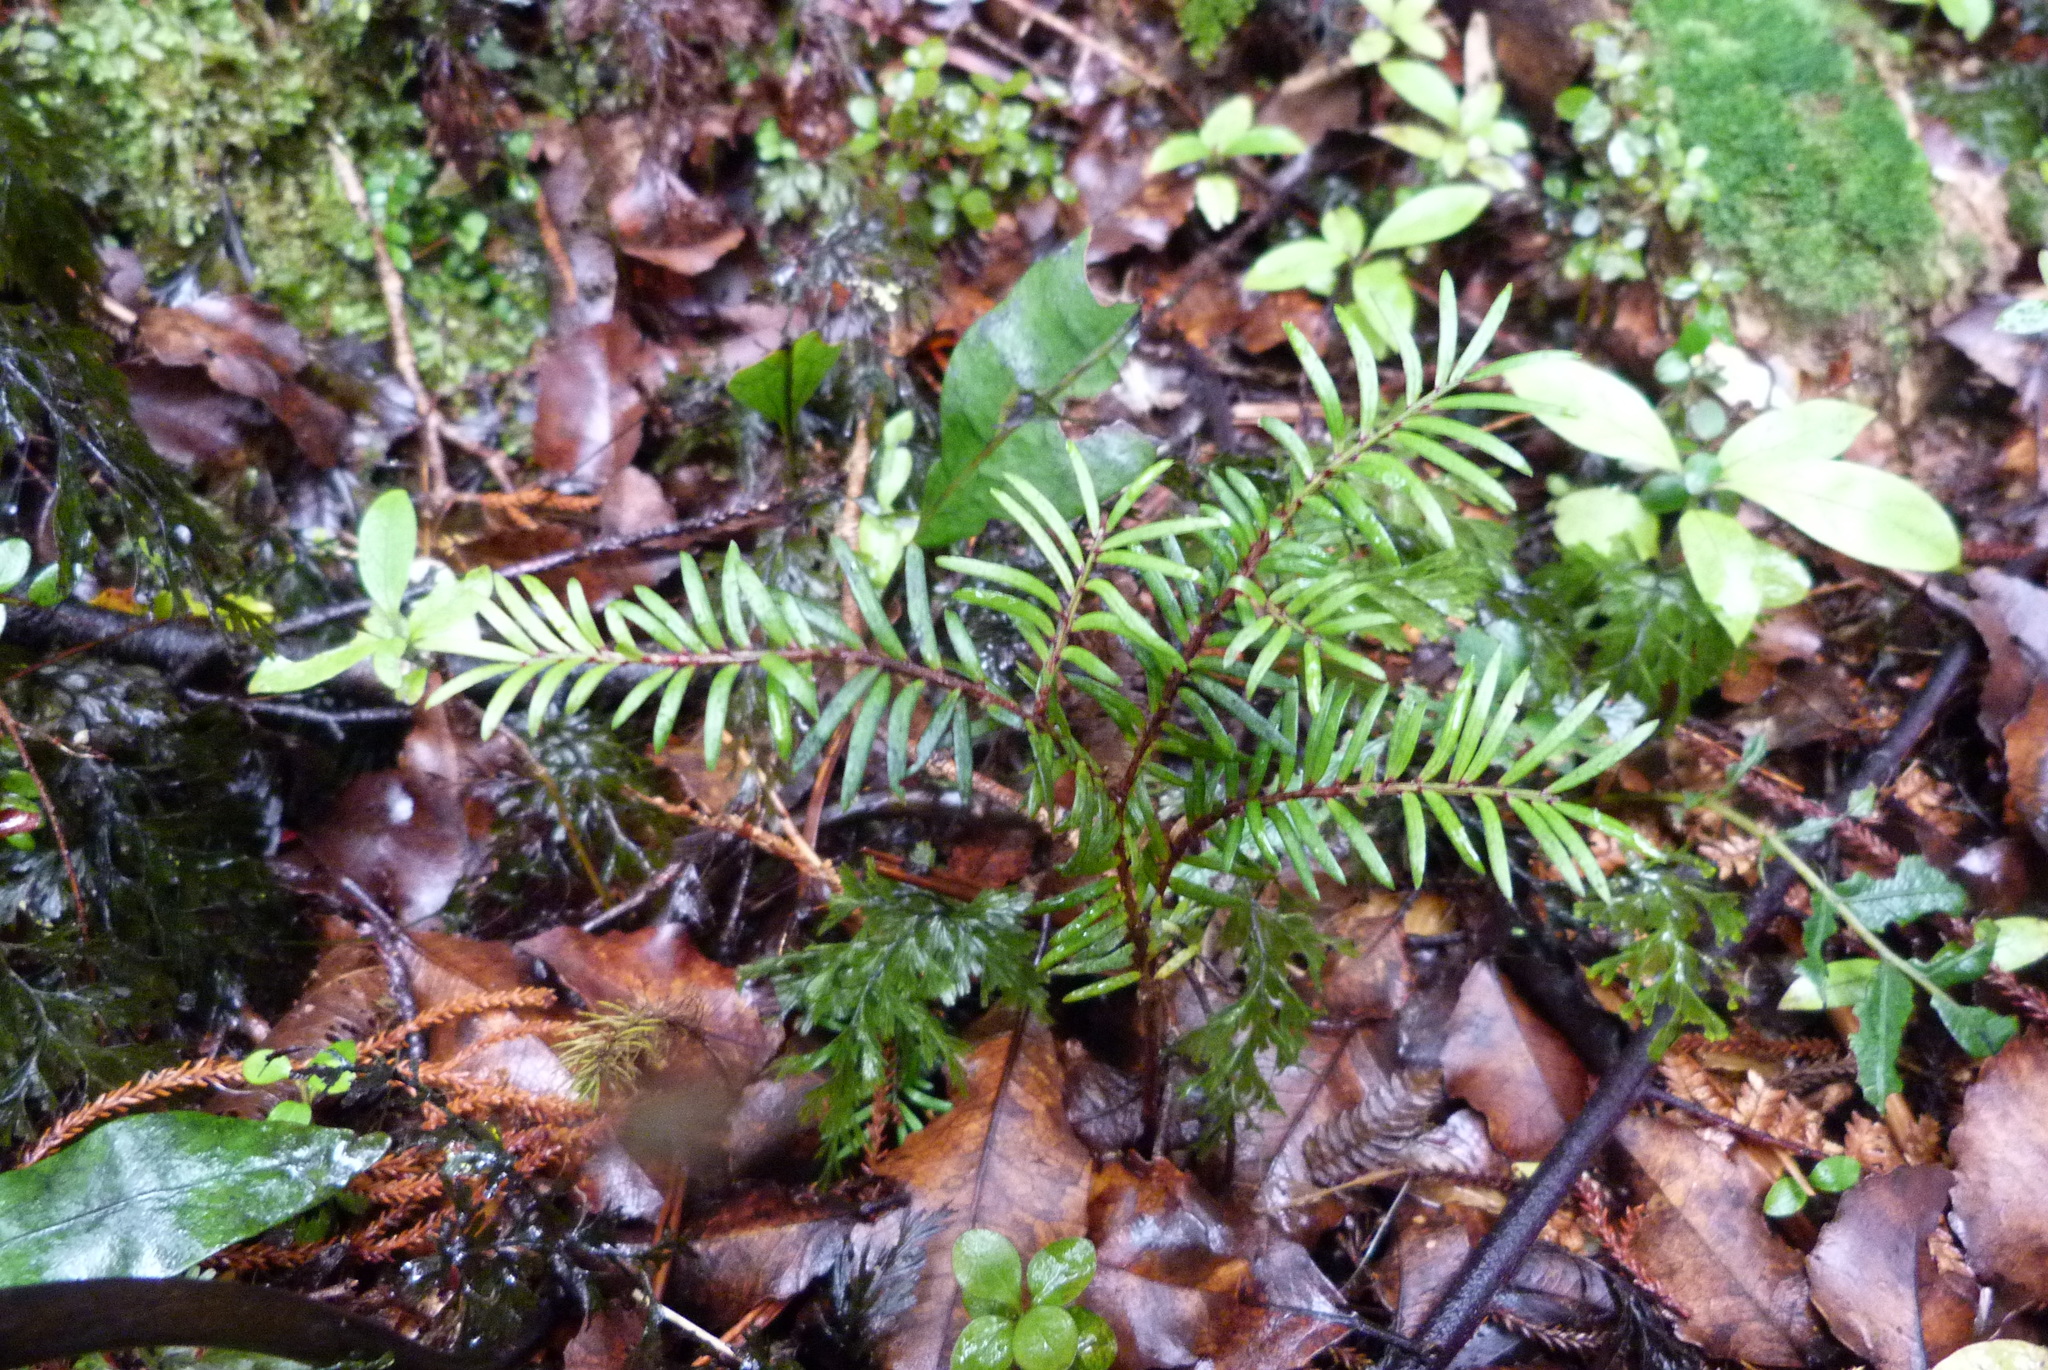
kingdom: Plantae
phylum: Tracheophyta
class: Pinopsida
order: Pinales
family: Podocarpaceae
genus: Prumnopitys
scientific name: Prumnopitys ferruginea
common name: Brown pine
